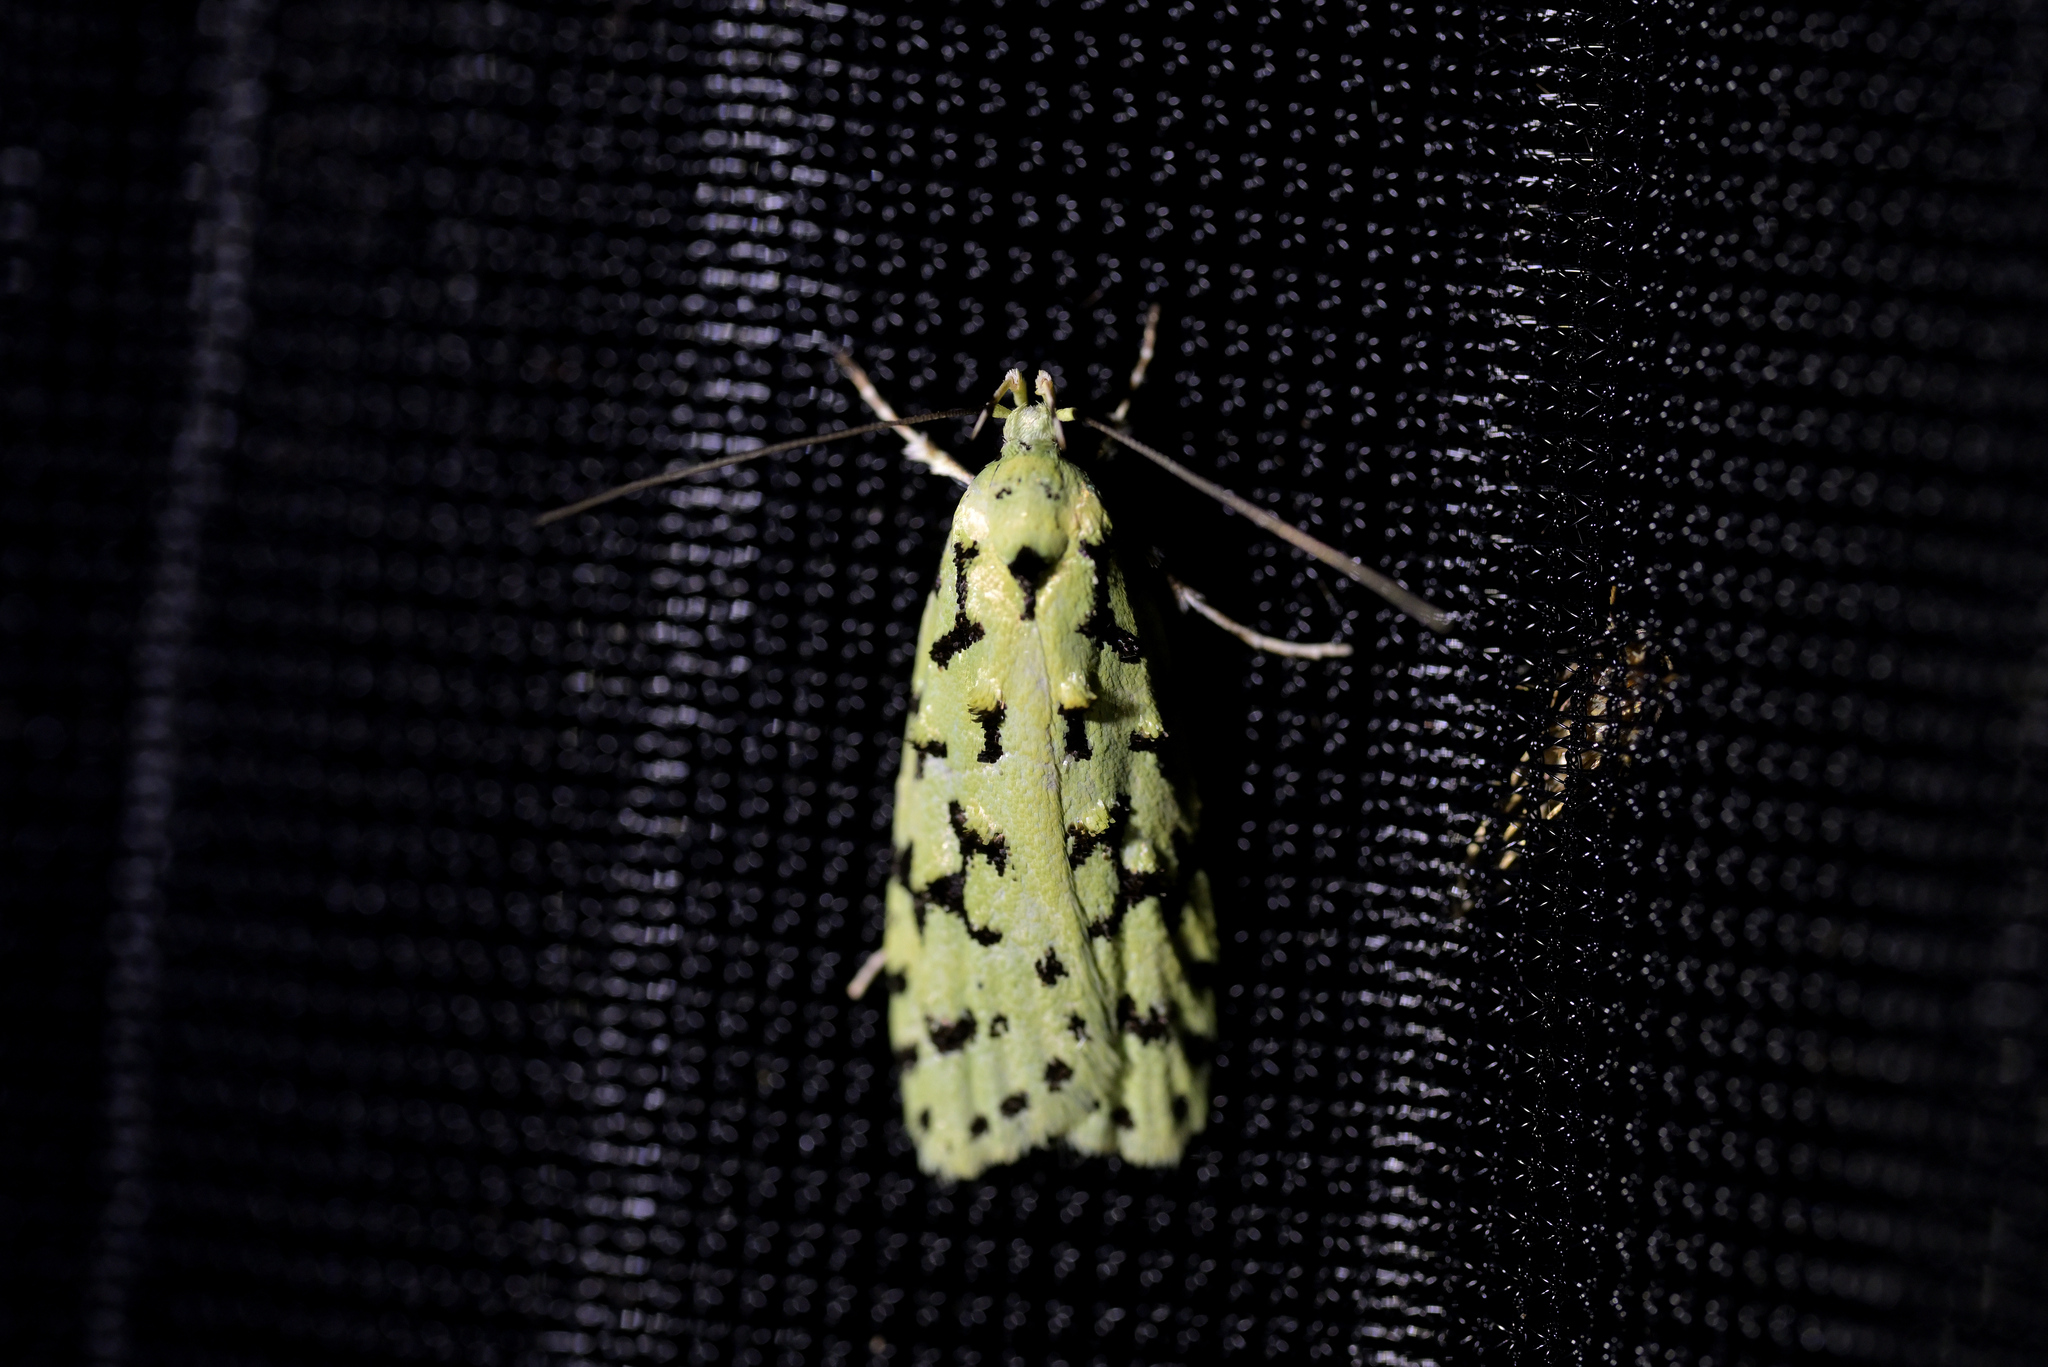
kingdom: Animalia
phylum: Arthropoda
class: Insecta
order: Lepidoptera
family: Oecophoridae
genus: Izatha
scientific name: Izatha huttoni
